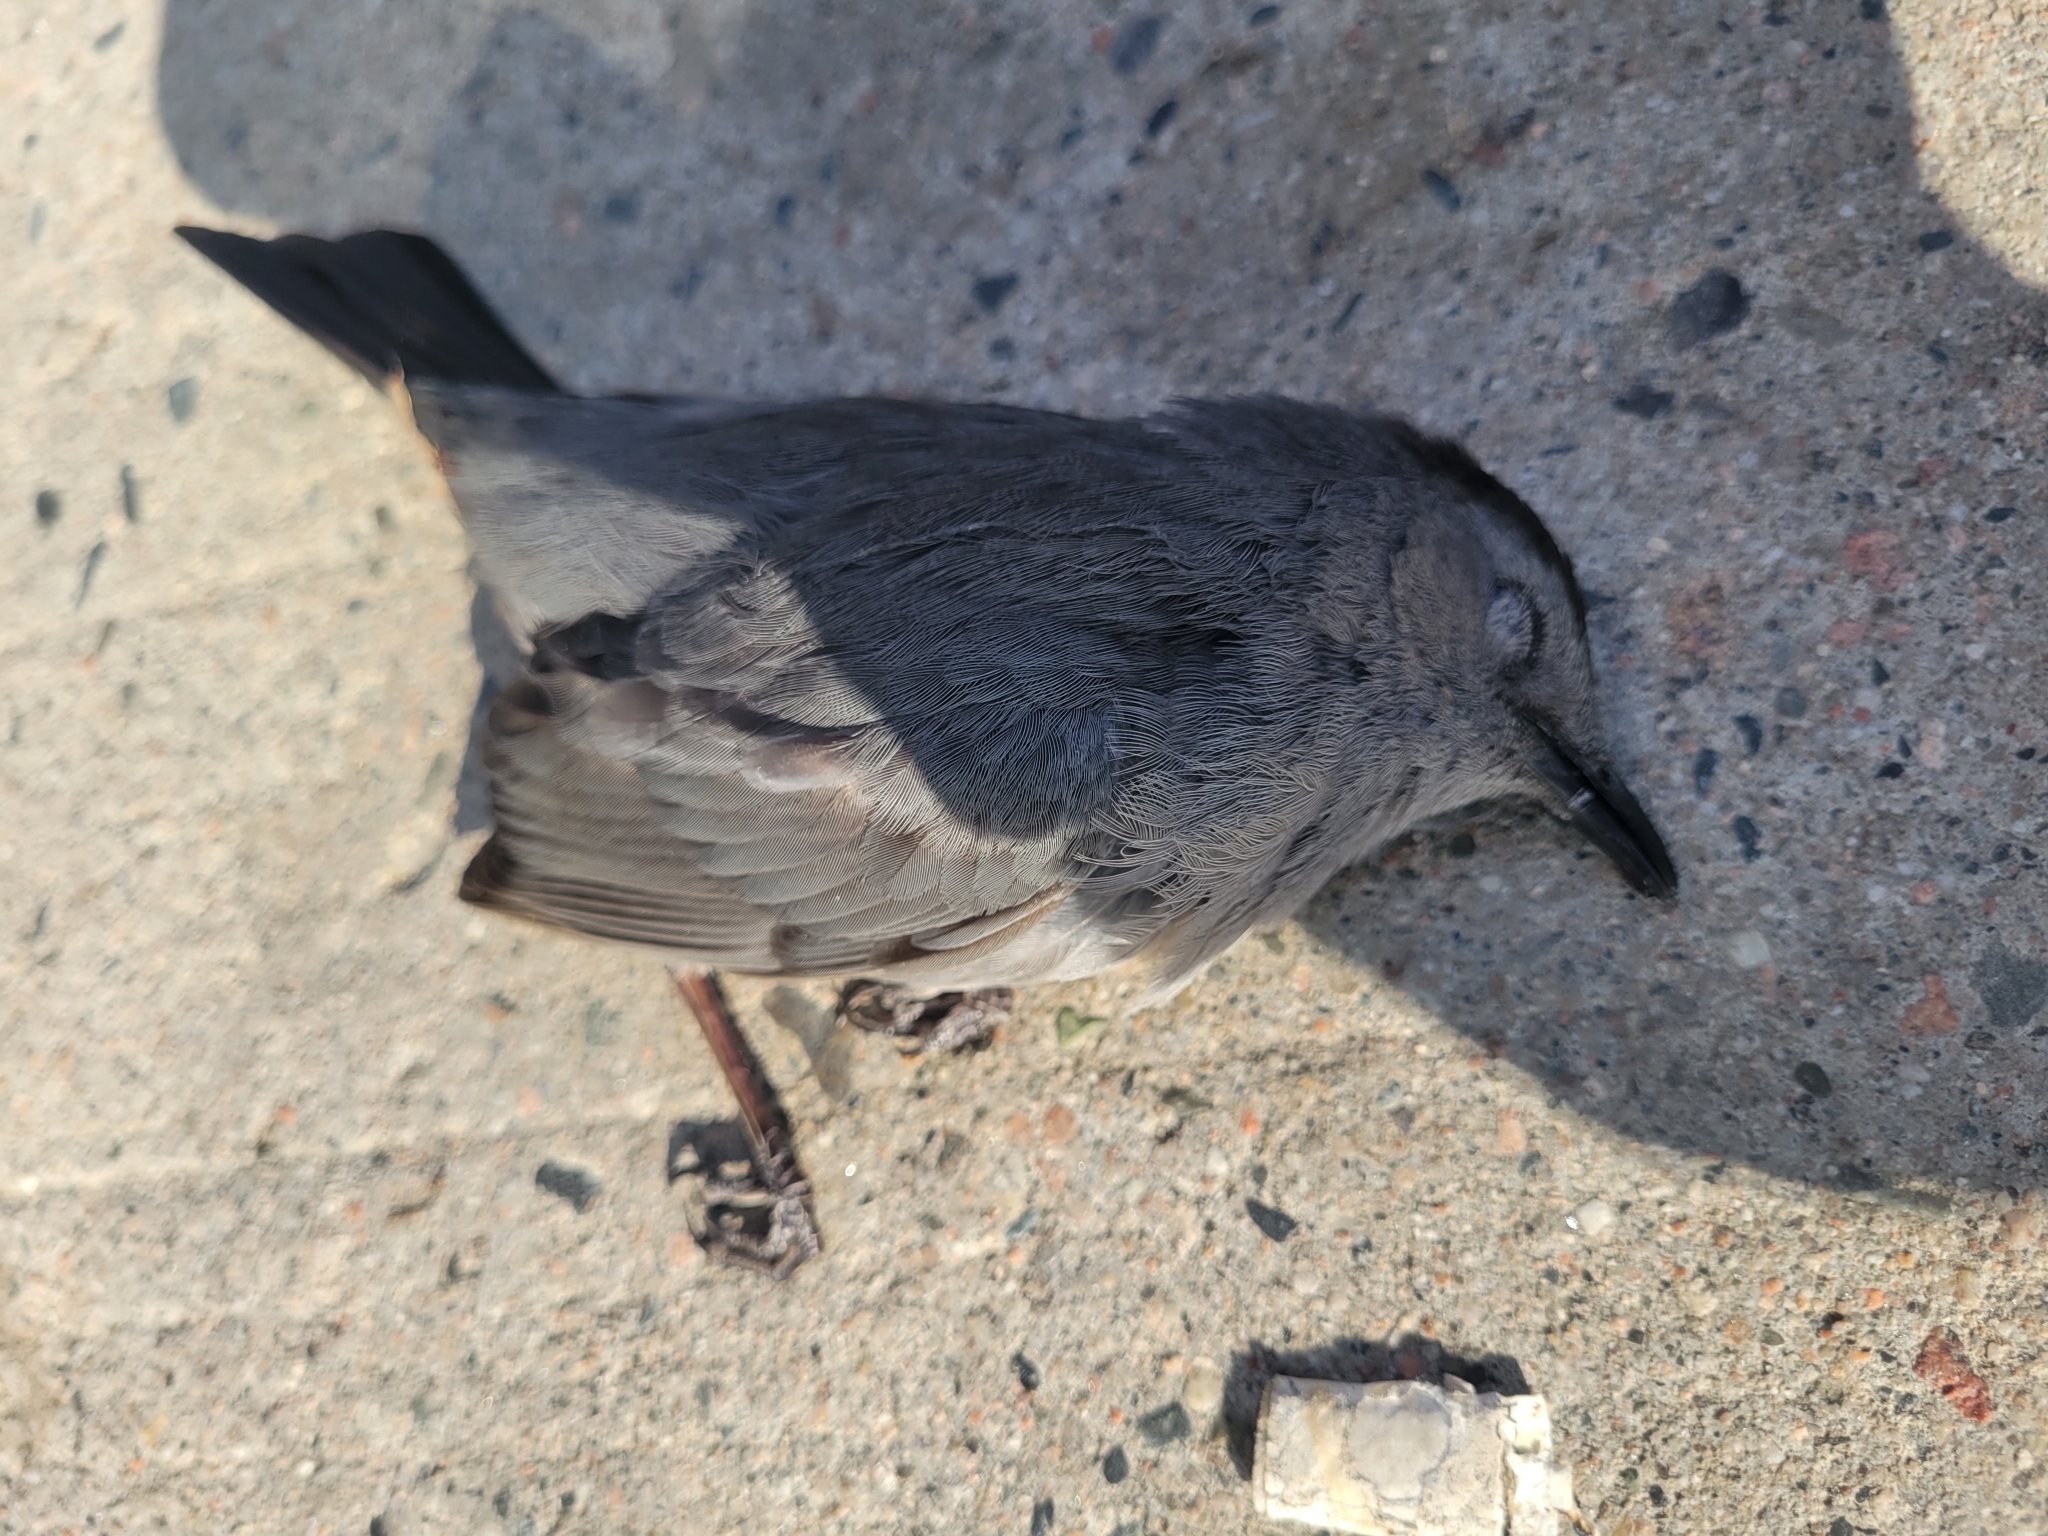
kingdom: Animalia
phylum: Chordata
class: Aves
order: Passeriformes
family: Mimidae
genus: Dumetella
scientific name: Dumetella carolinensis
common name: Gray catbird
